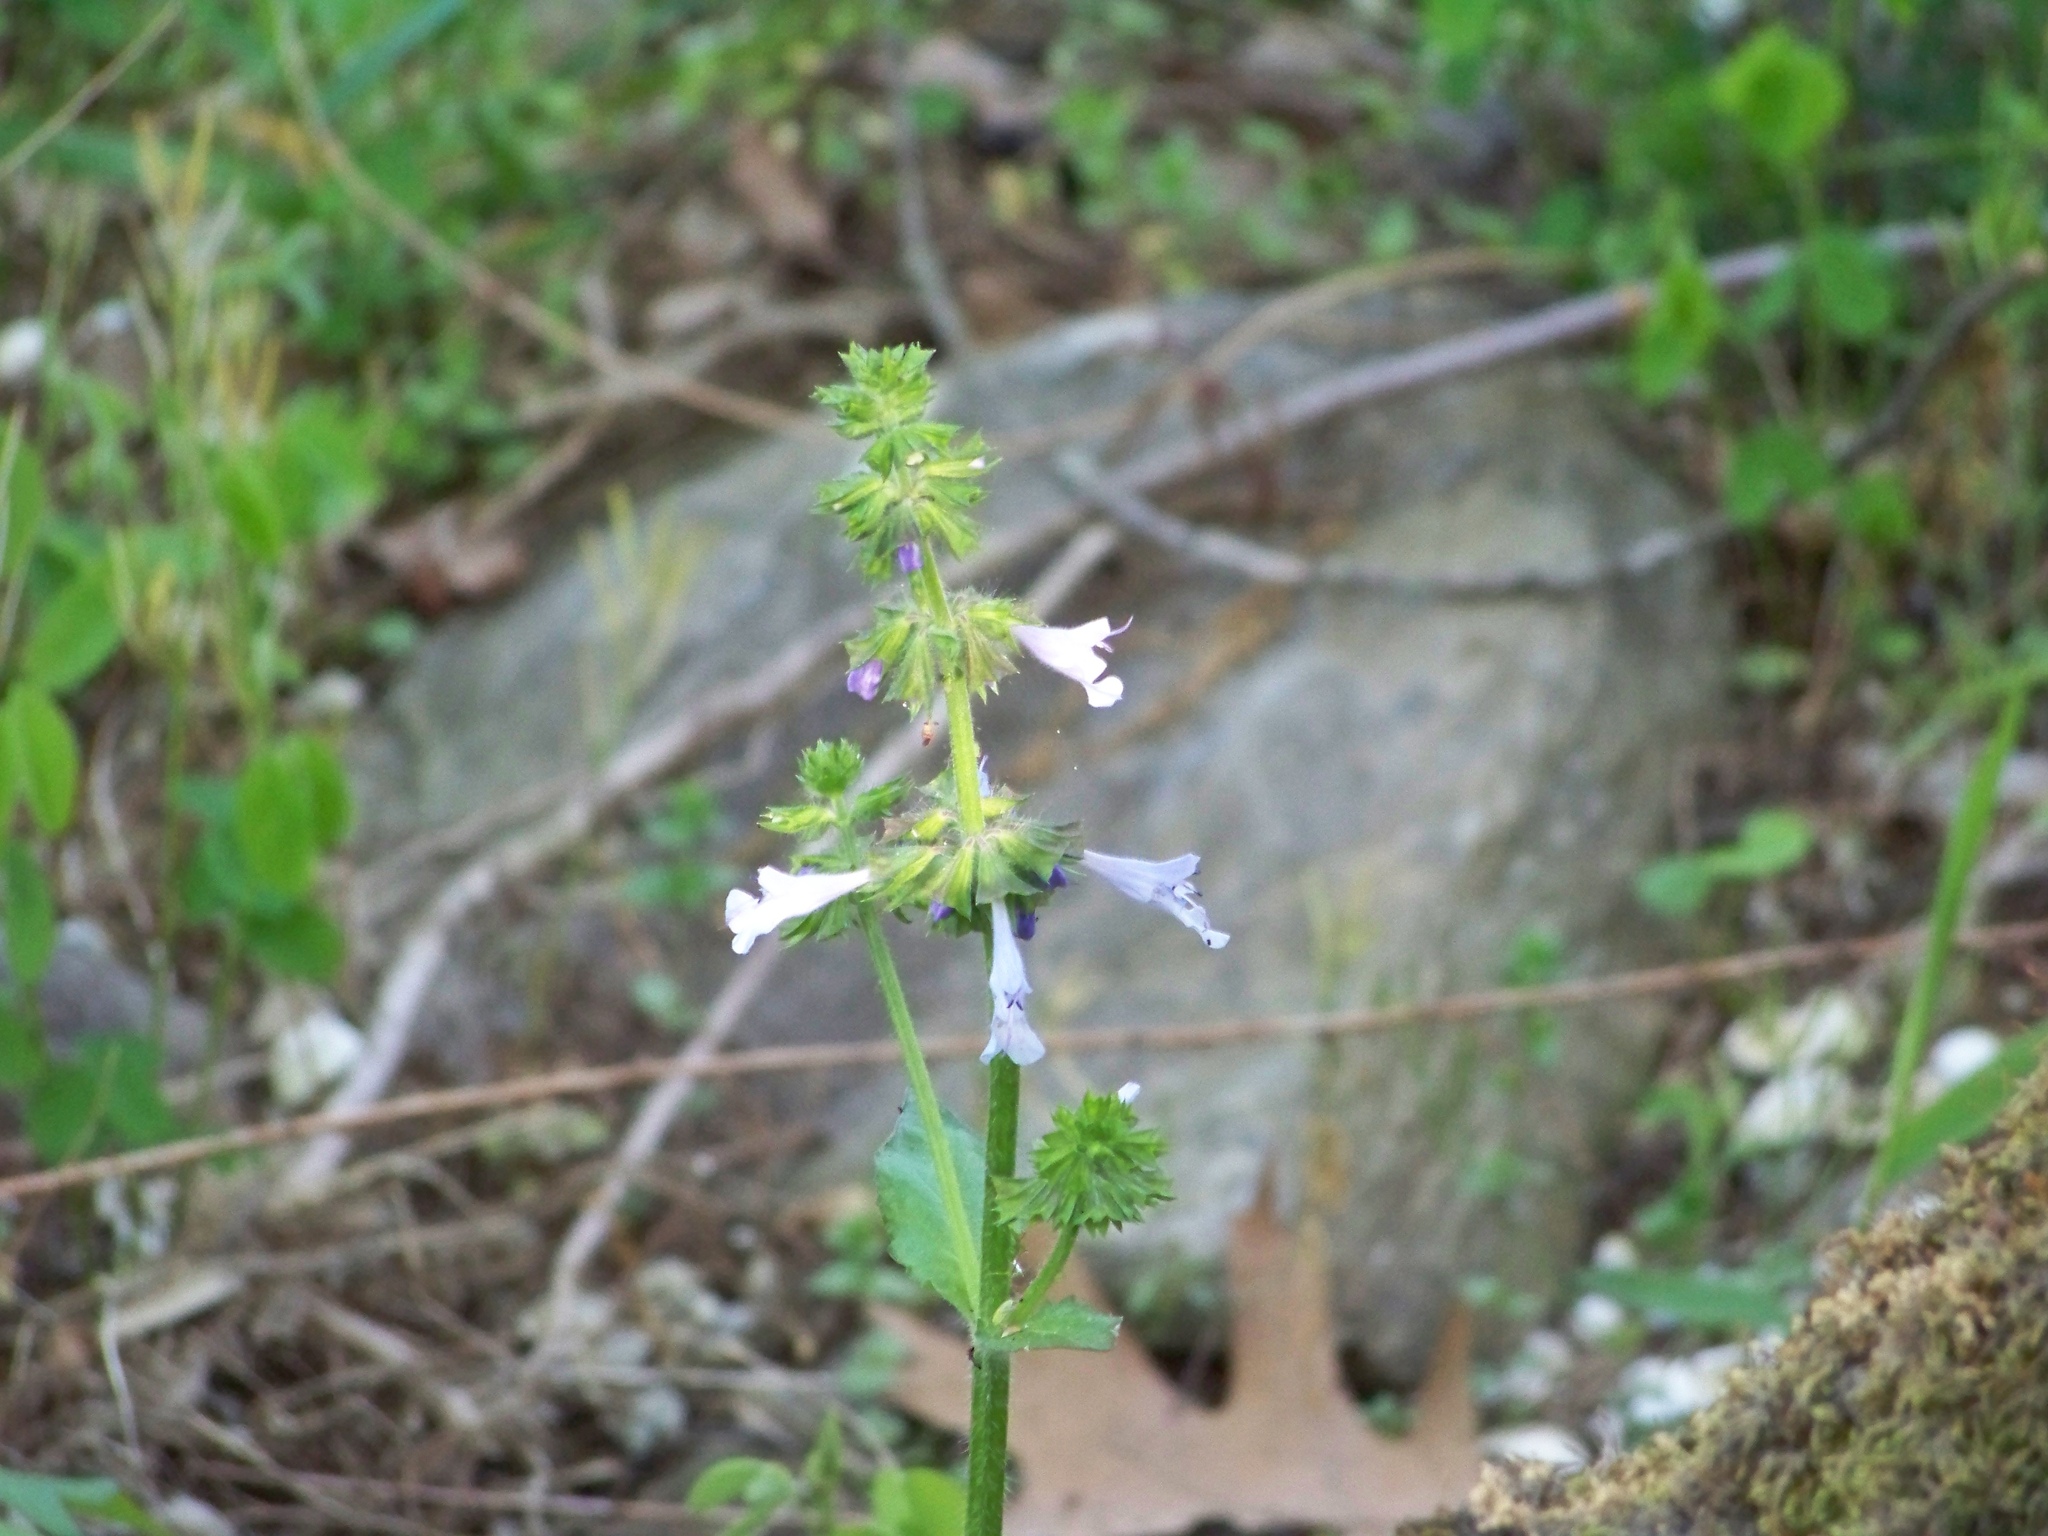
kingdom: Plantae
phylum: Tracheophyta
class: Magnoliopsida
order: Lamiales
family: Lamiaceae
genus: Salvia
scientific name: Salvia lyrata
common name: Cancerweed
